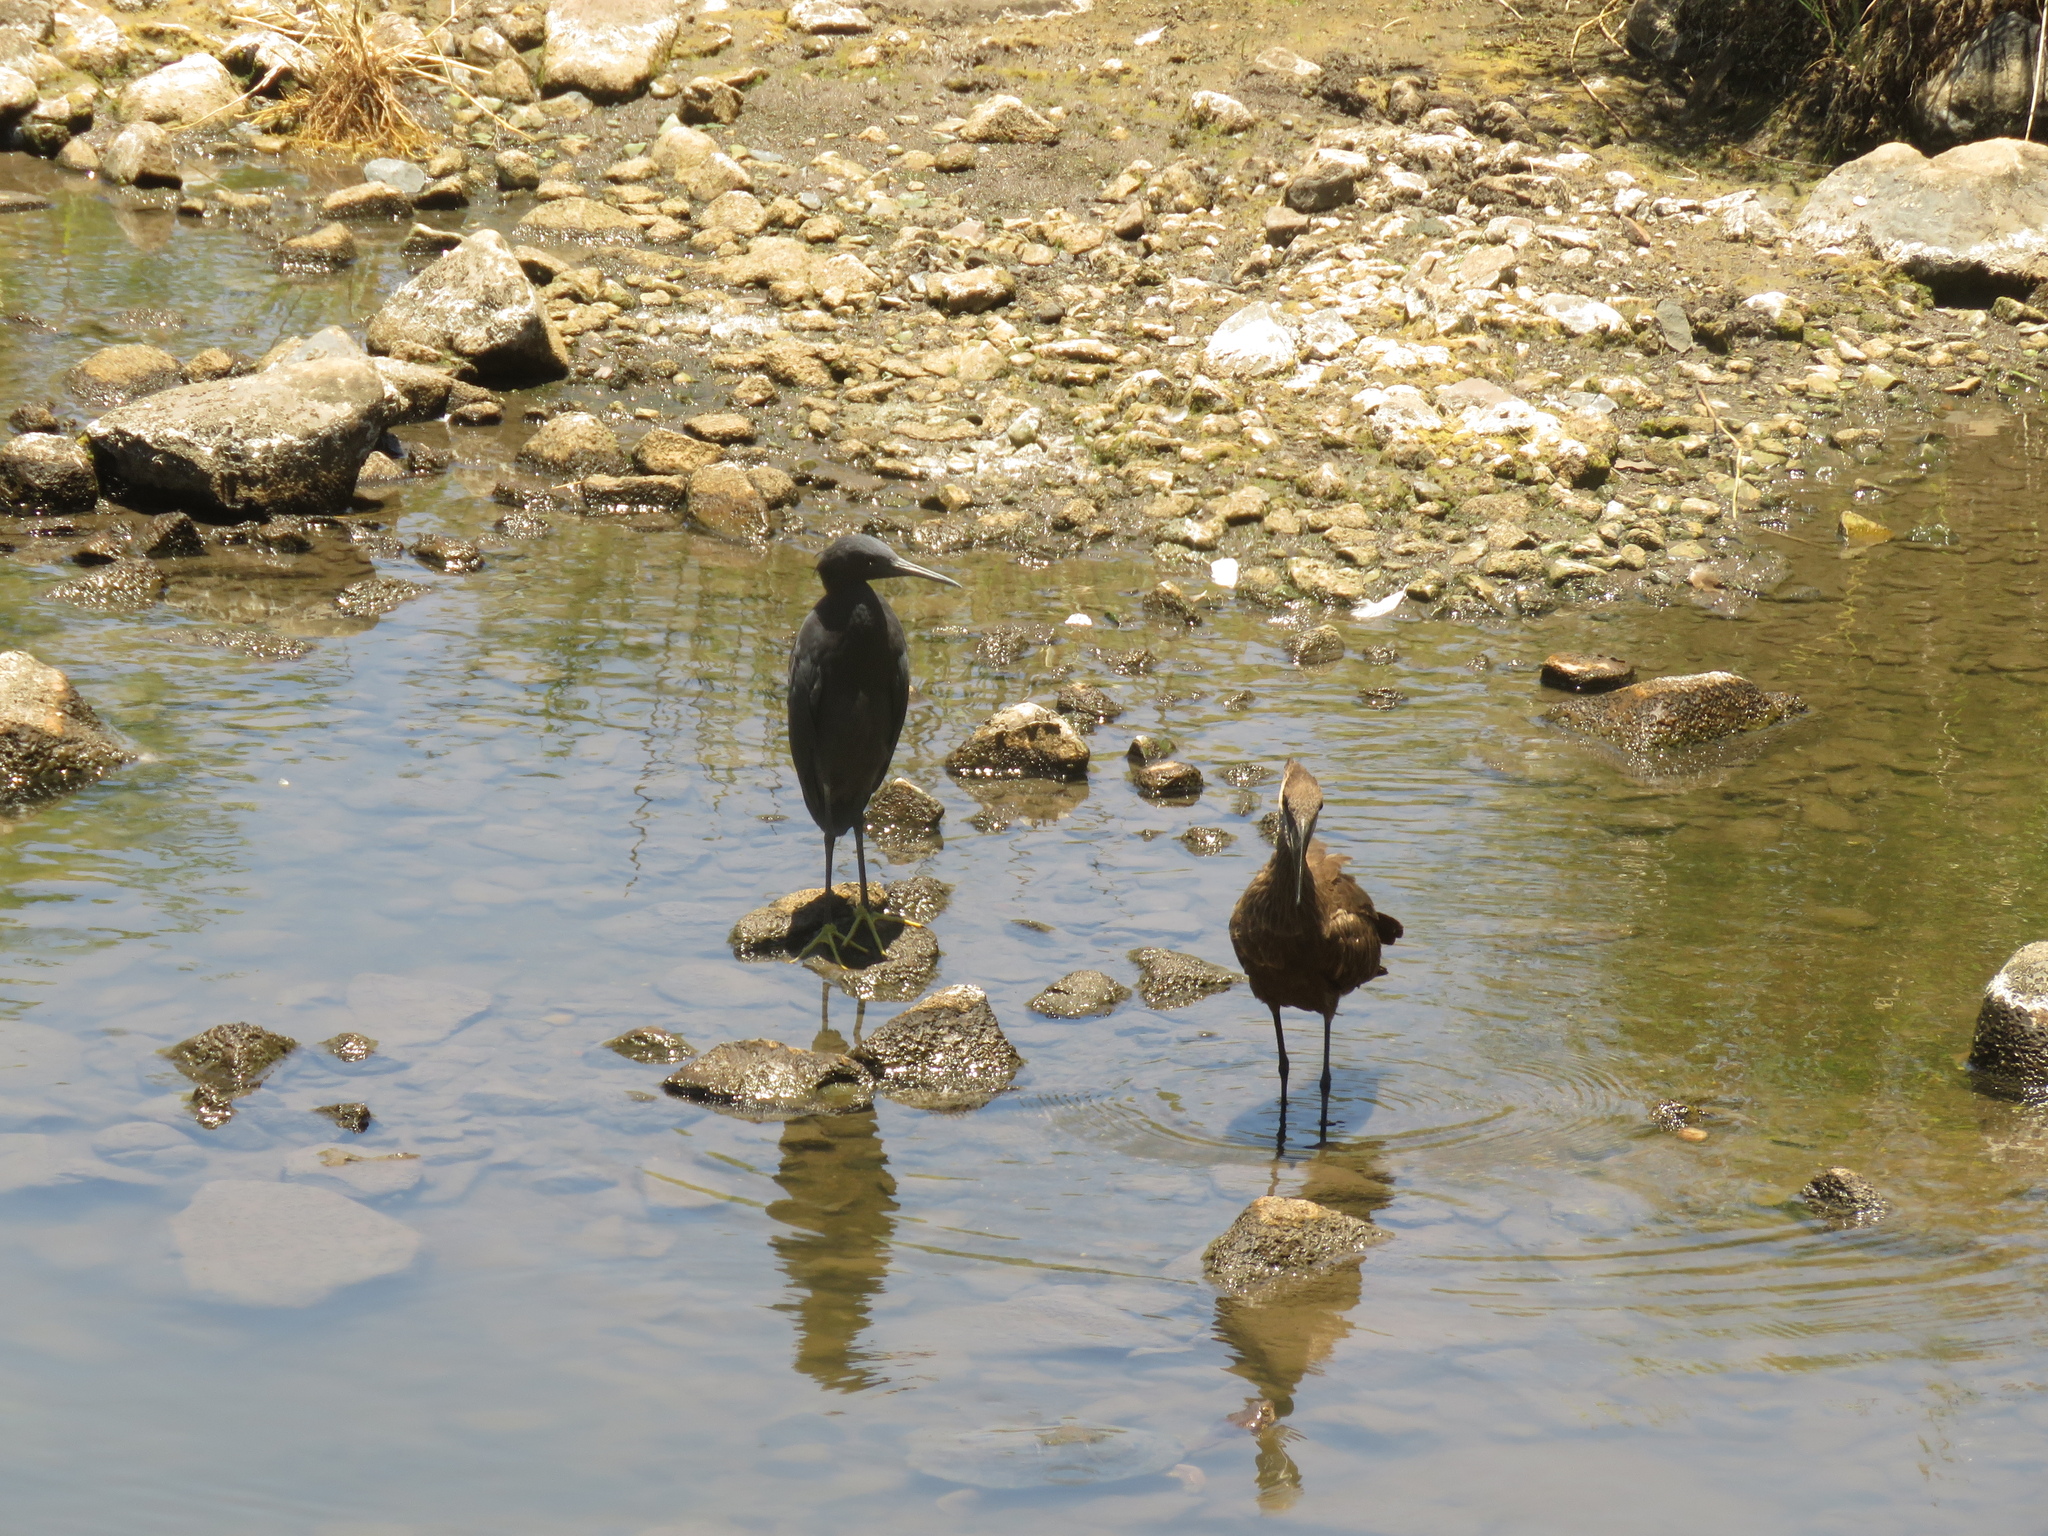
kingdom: Animalia
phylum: Chordata
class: Aves
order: Pelecaniformes
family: Ardeidae
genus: Egretta
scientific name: Egretta ardesiaca
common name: Black heron
